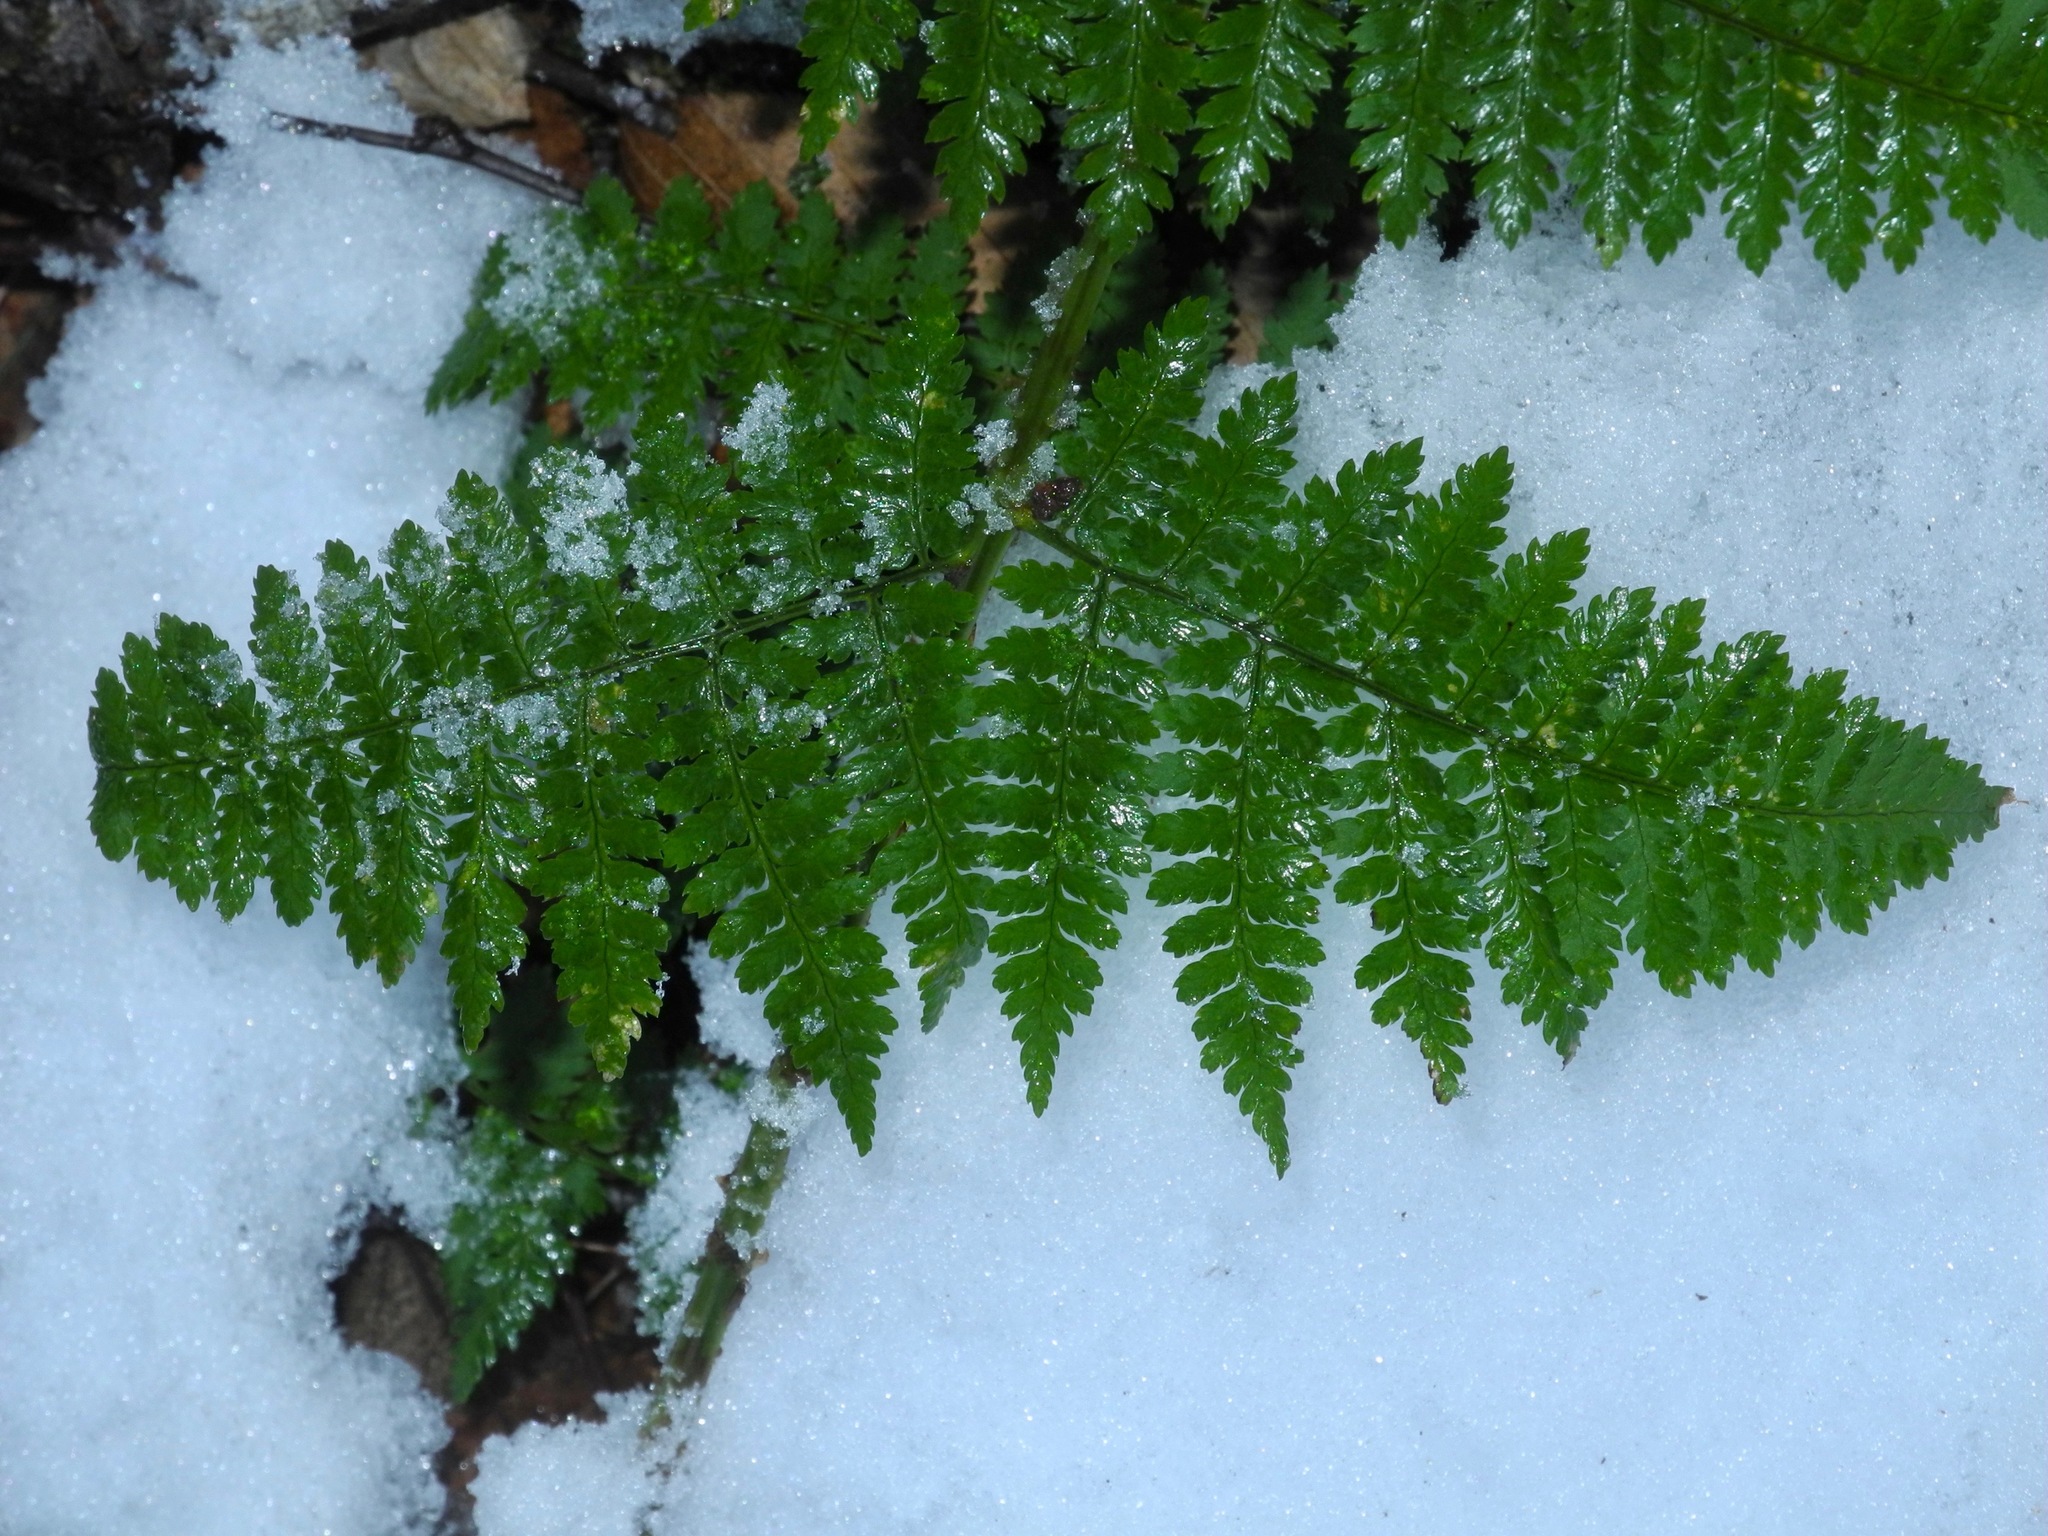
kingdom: Plantae
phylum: Tracheophyta
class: Polypodiopsida
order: Polypodiales
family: Dryopteridaceae
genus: Dryopteris
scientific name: Dryopteris intermedia
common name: Evergreen wood fern
